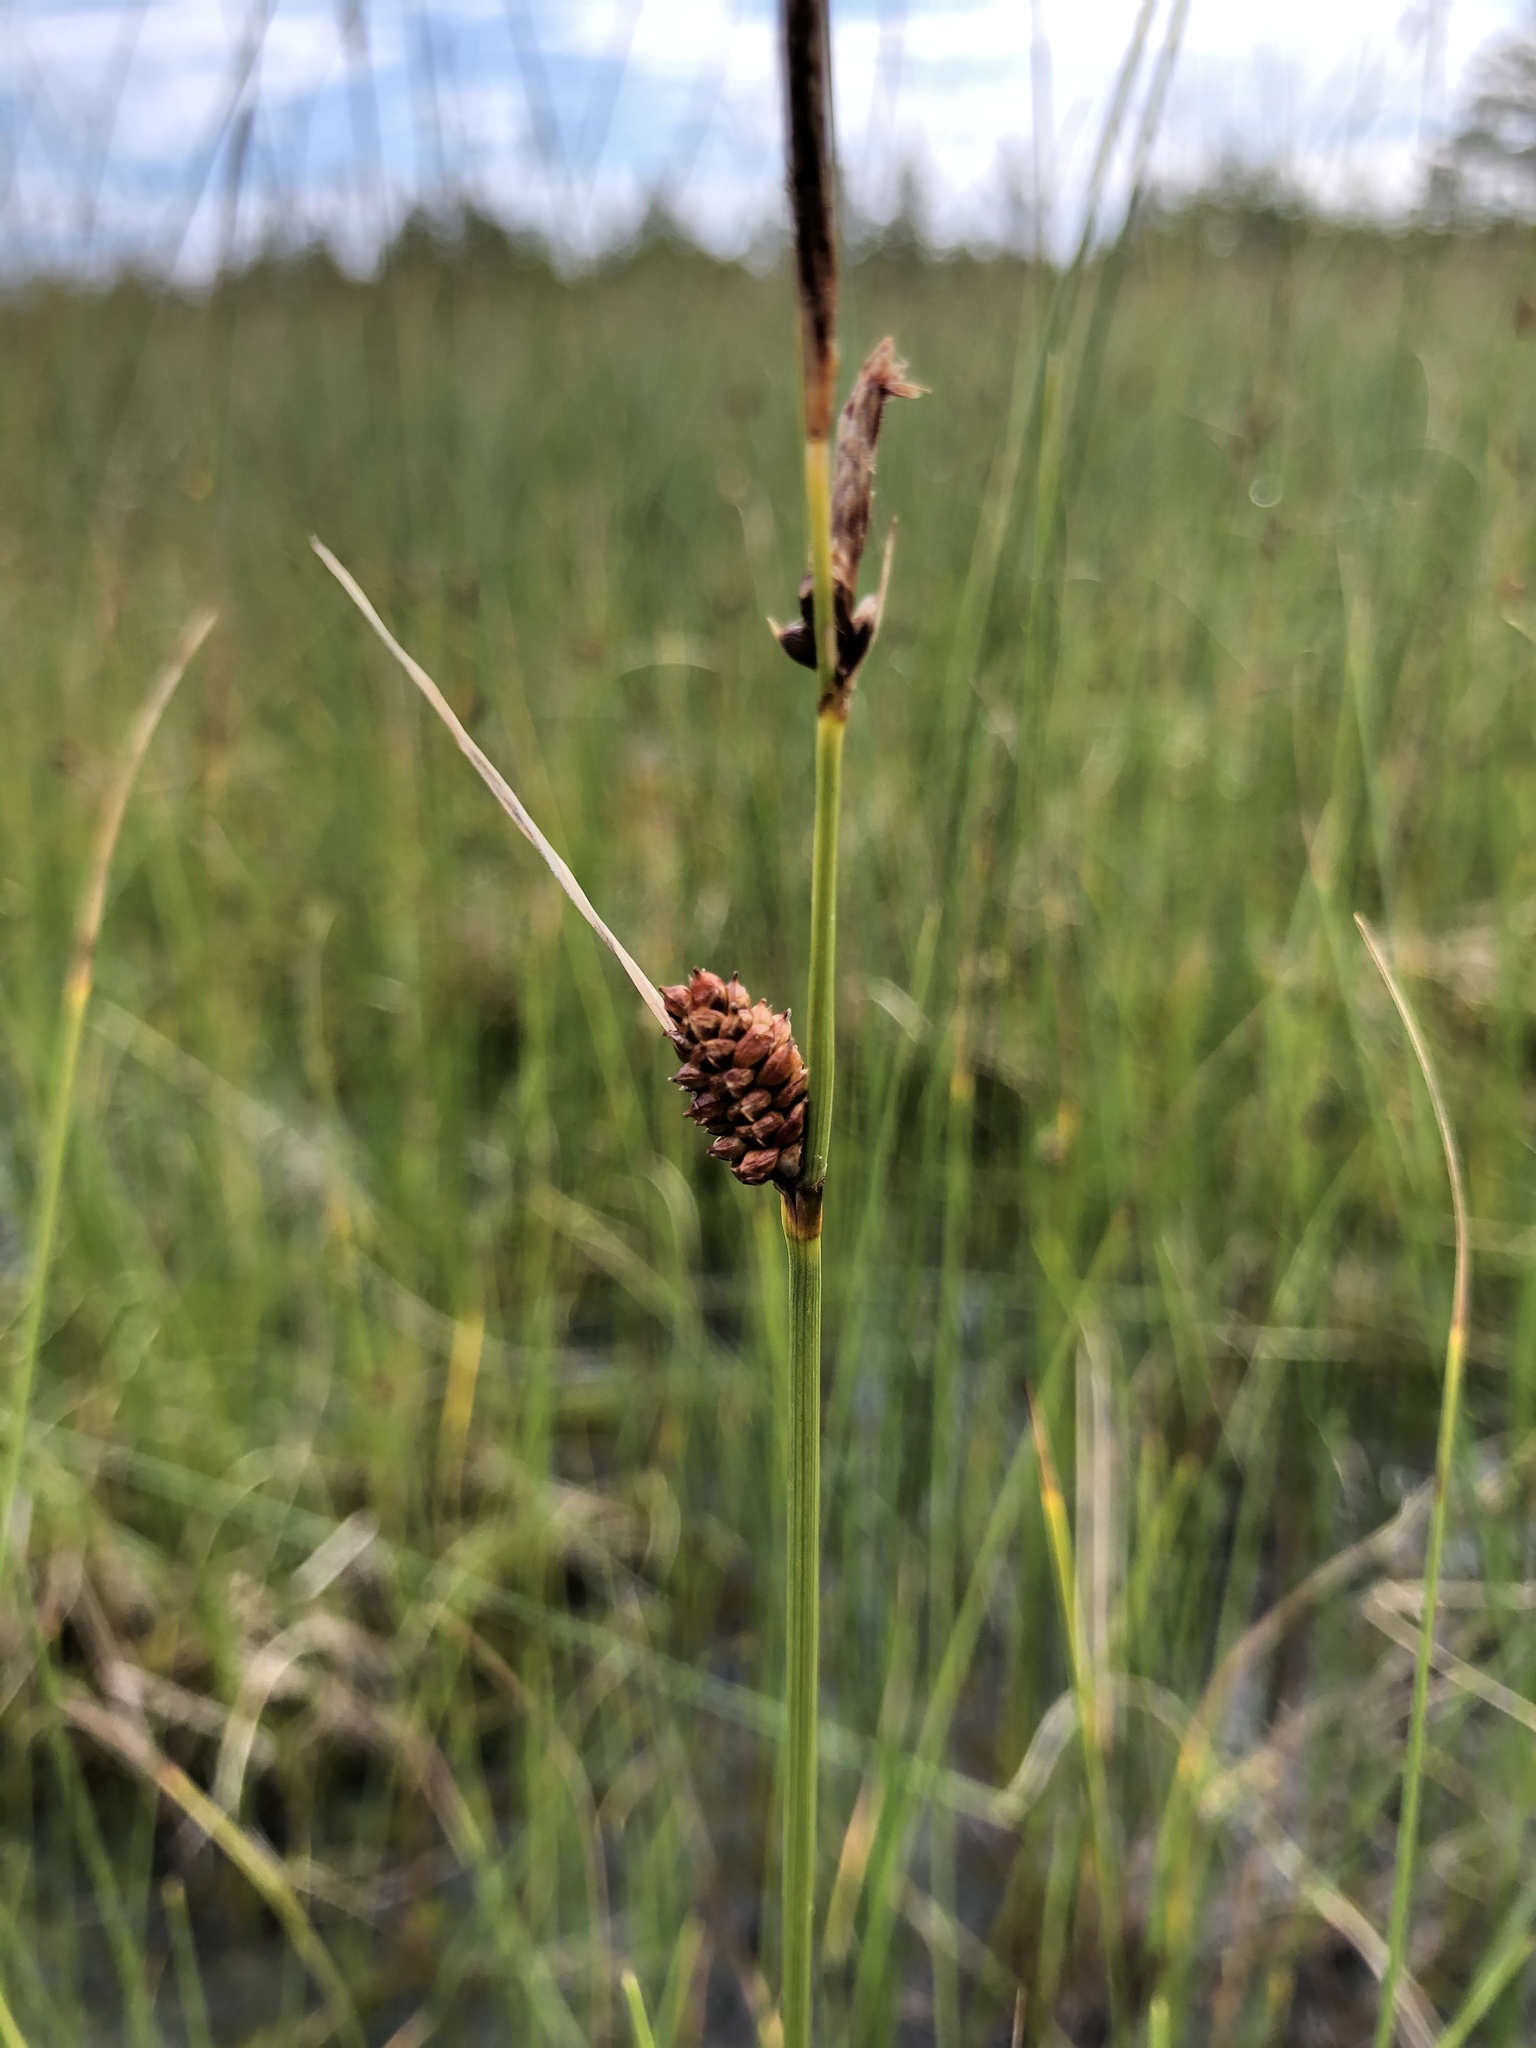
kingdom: Plantae
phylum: Tracheophyta
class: Liliopsida
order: Poales
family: Cyperaceae
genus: Carex
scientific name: Carex rotundata
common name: Round-fruited sedge
